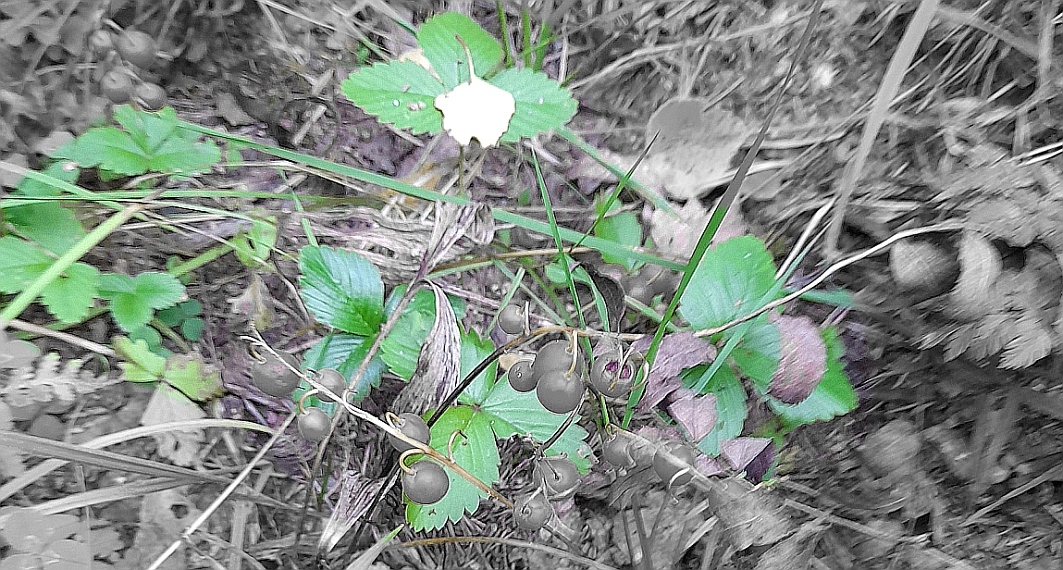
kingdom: Plantae
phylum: Tracheophyta
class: Magnoliopsida
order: Rosales
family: Rosaceae
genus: Fragaria
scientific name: Fragaria vesca
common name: Wild strawberry
